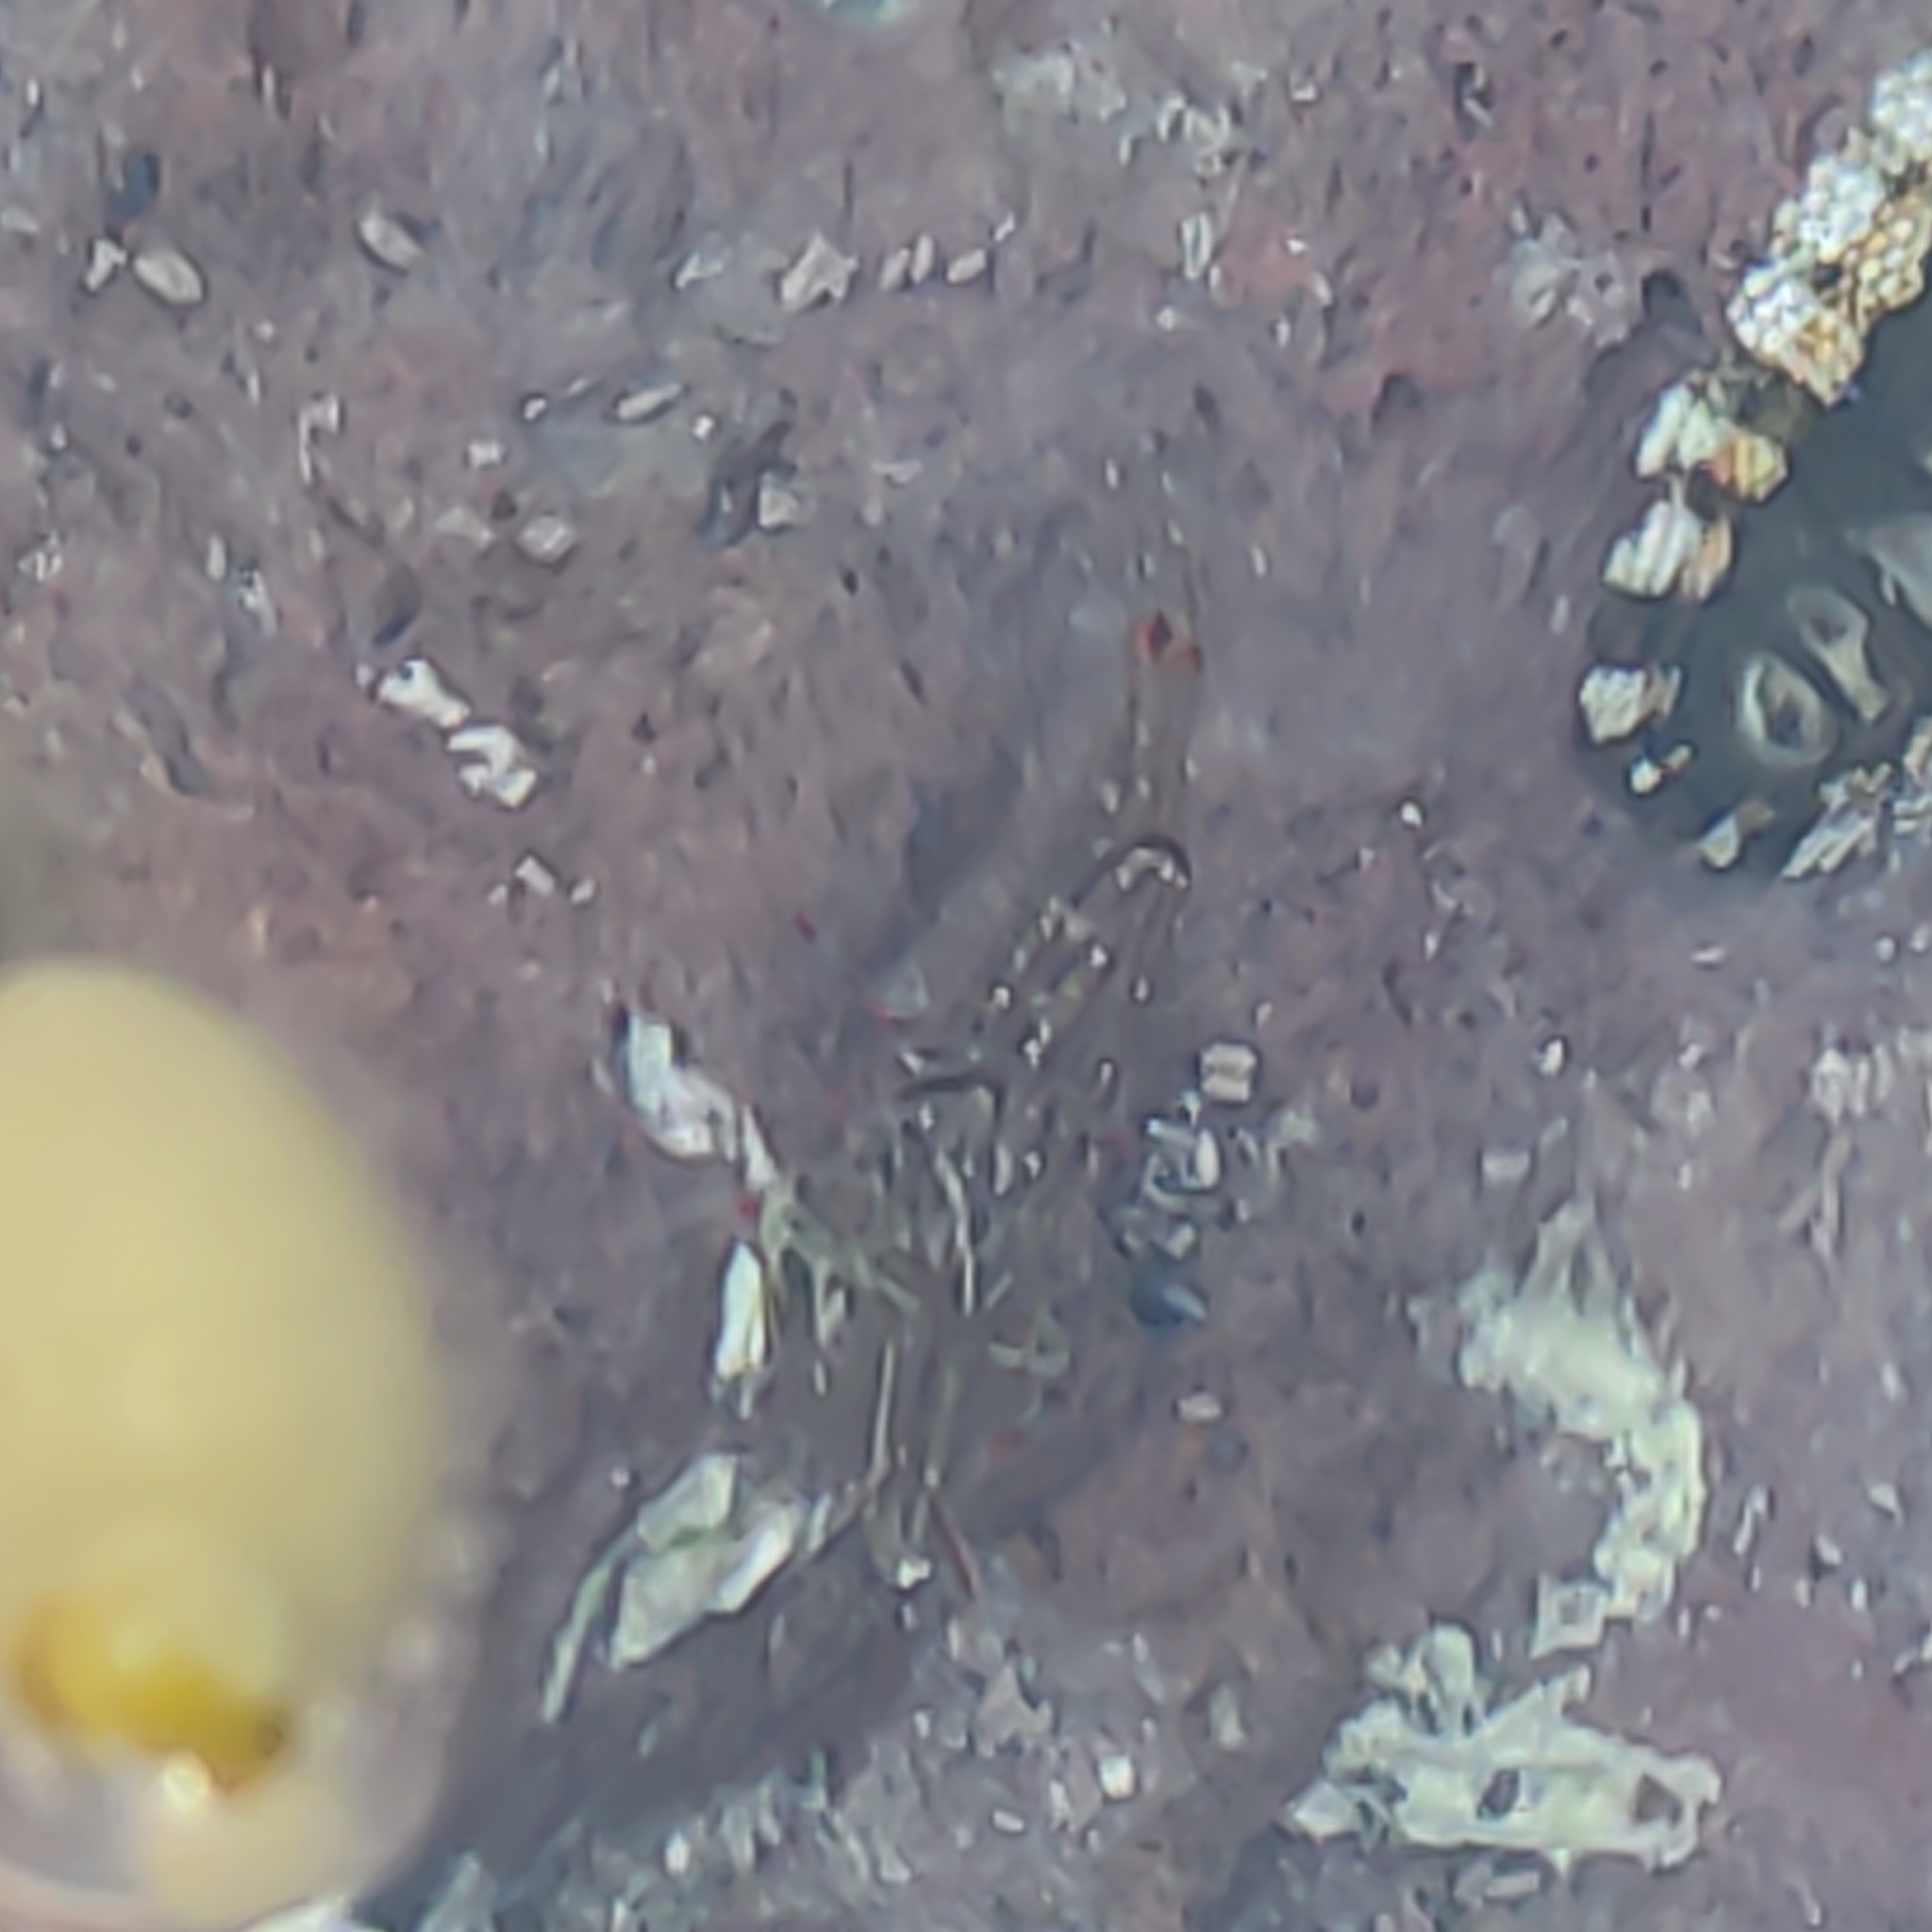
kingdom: Animalia
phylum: Arthropoda
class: Malacostraca
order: Decapoda
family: Palaemonidae
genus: Palaemon
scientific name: Palaemon affinis
